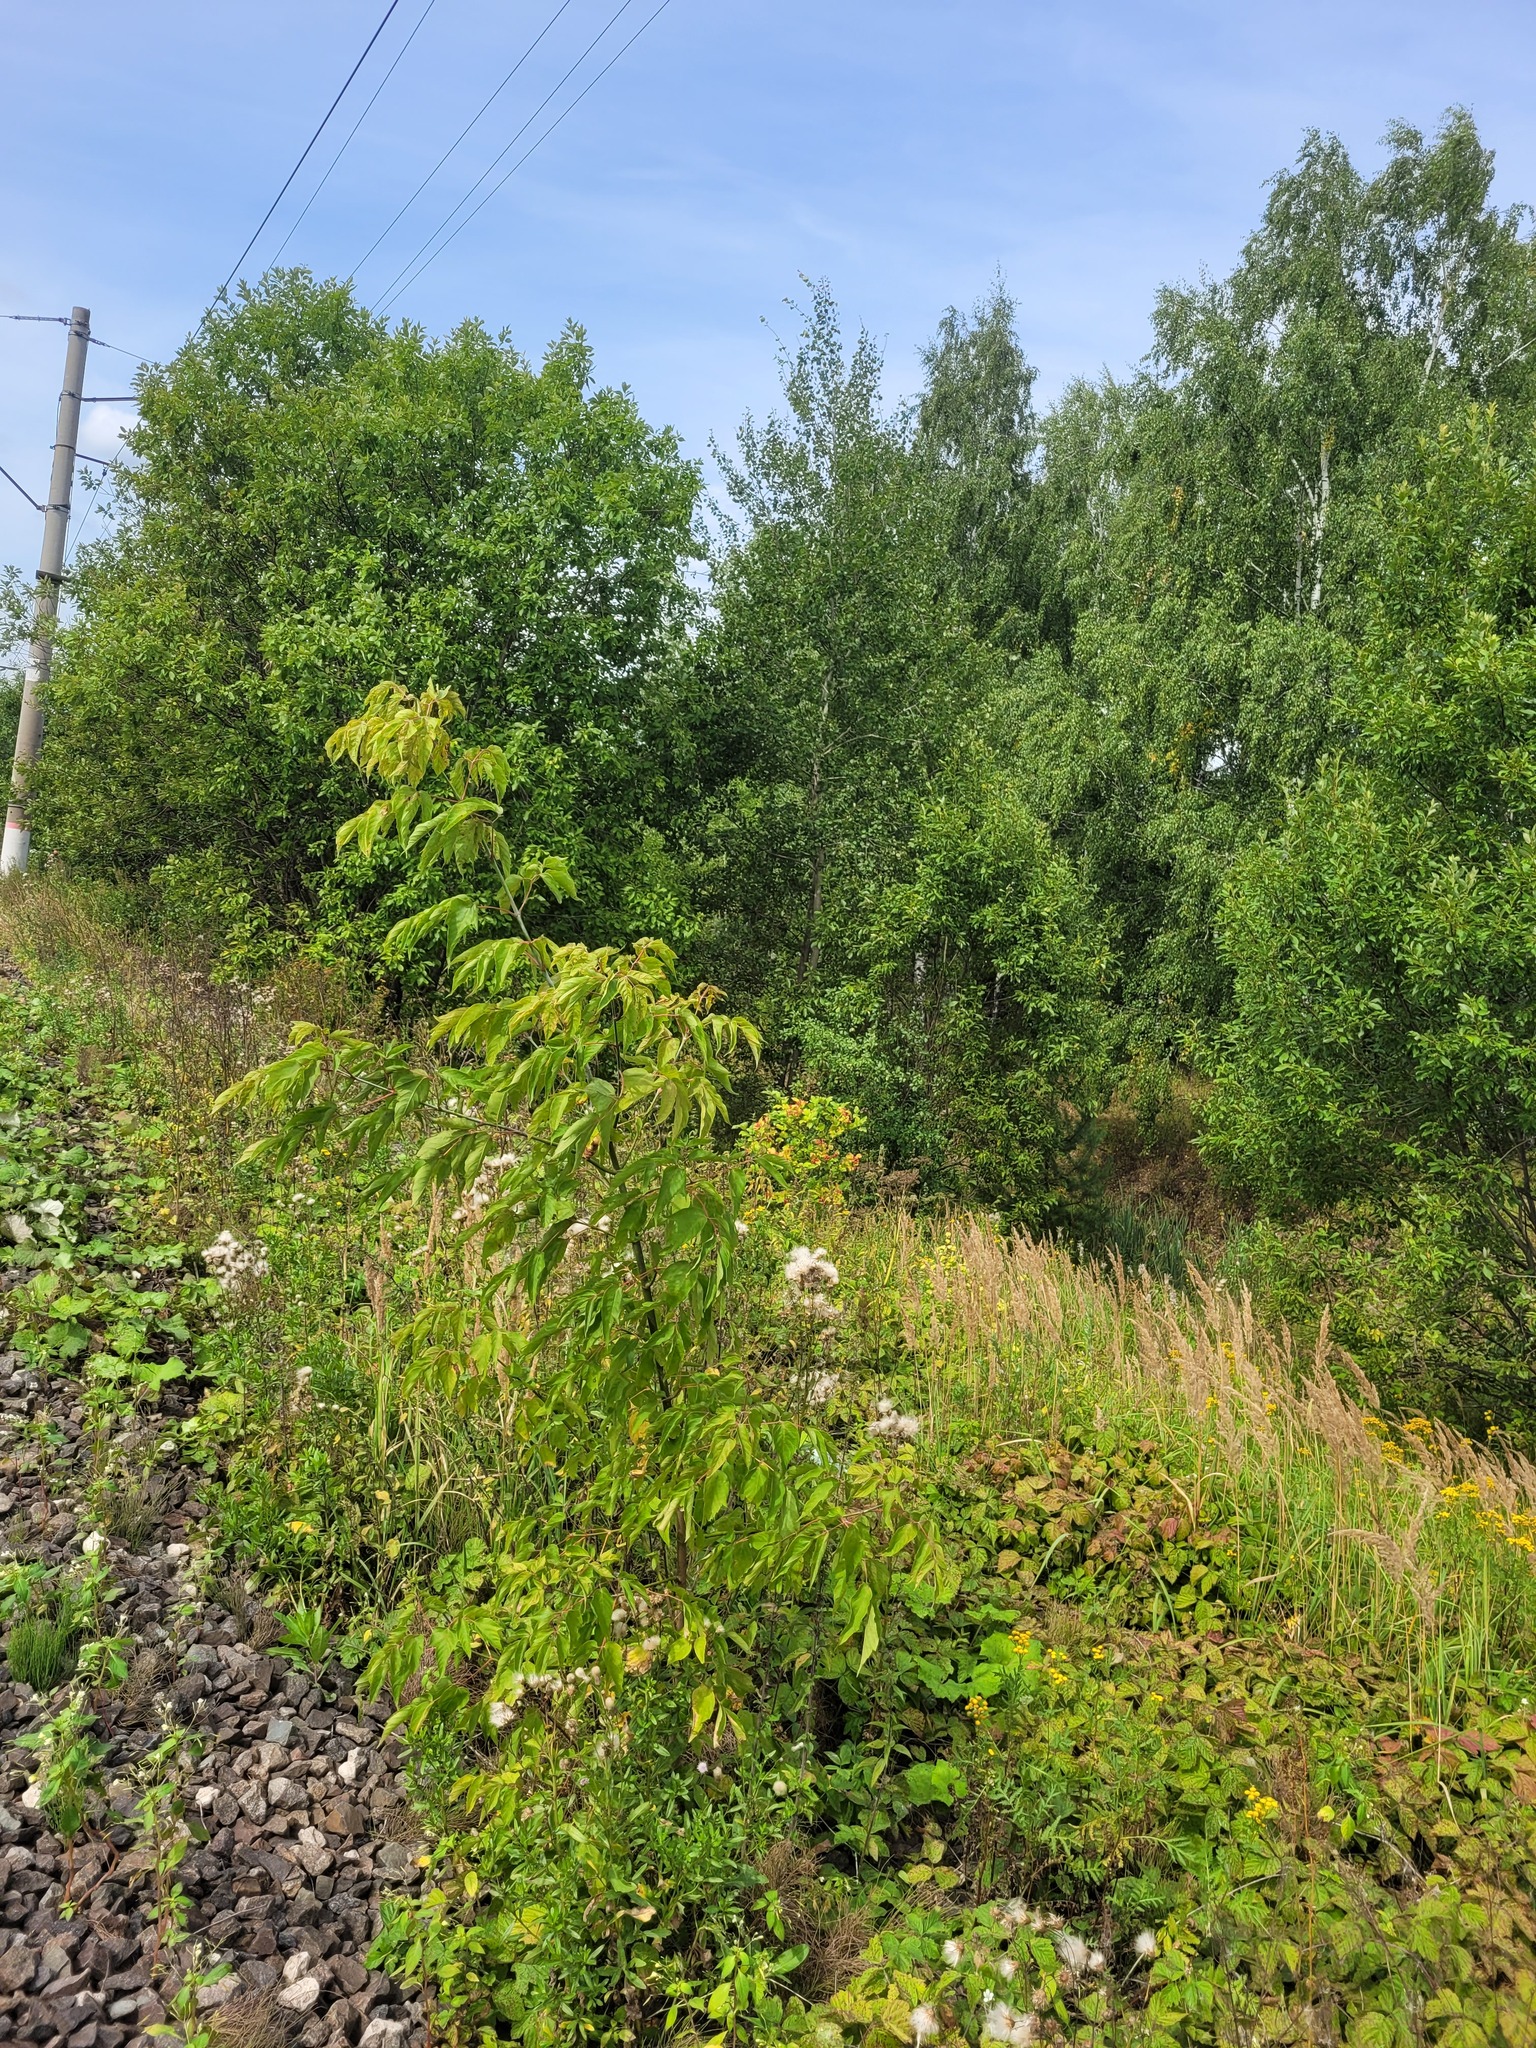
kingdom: Plantae
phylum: Tracheophyta
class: Magnoliopsida
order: Sapindales
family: Sapindaceae
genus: Acer
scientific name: Acer negundo
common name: Ashleaf maple
